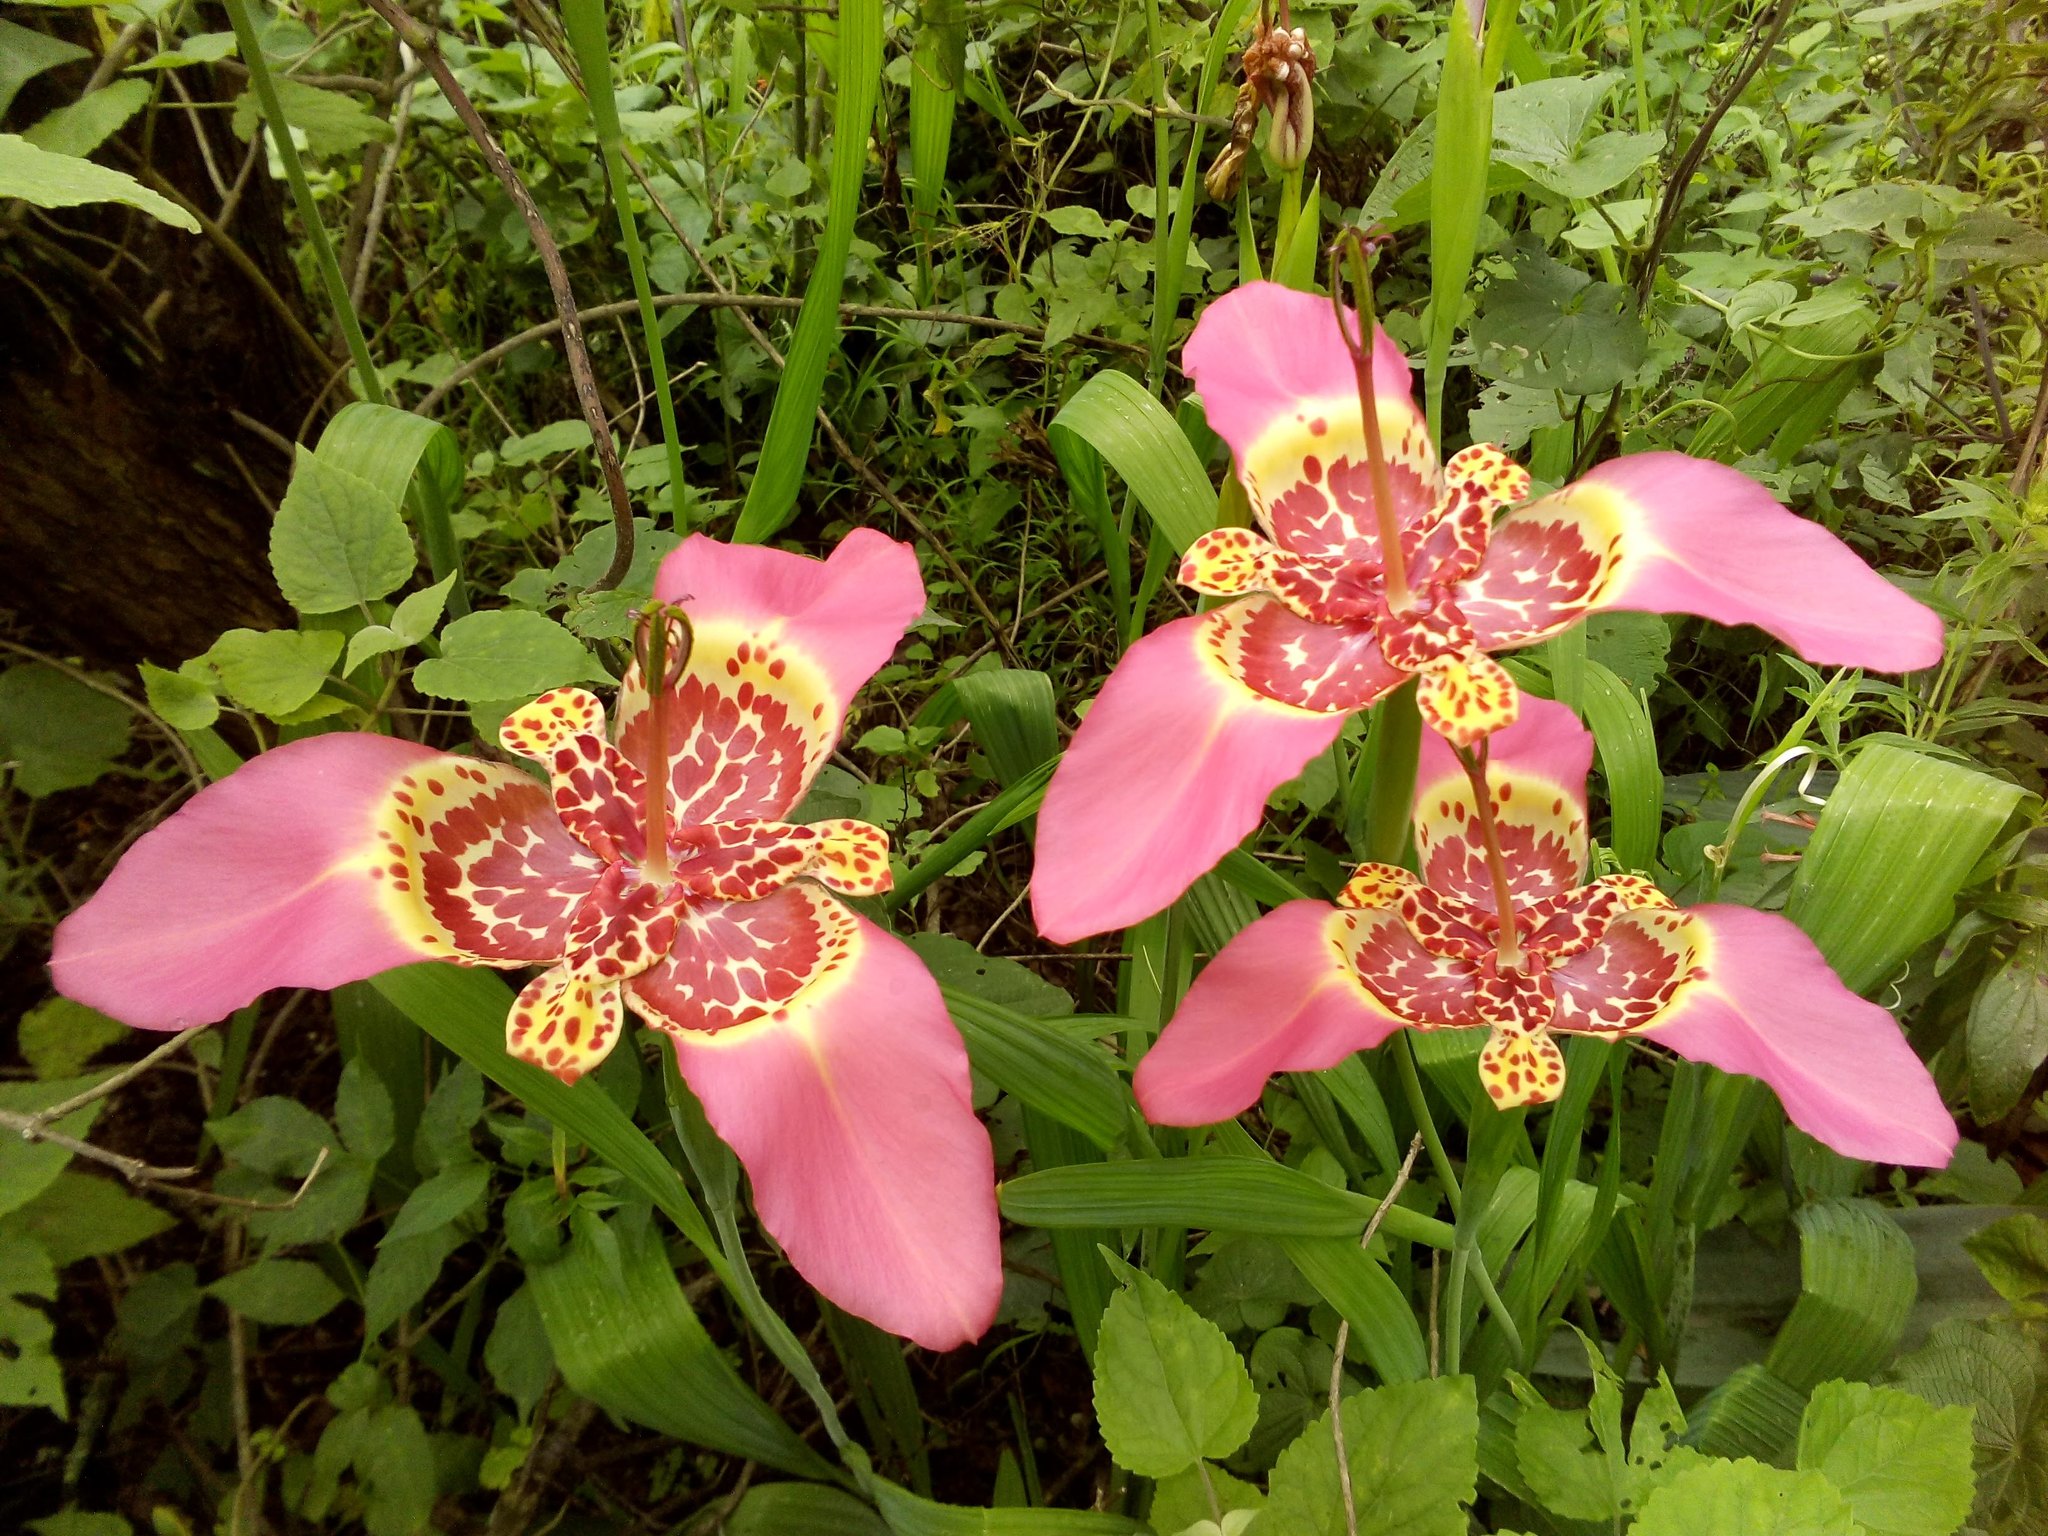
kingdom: Plantae
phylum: Tracheophyta
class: Liliopsida
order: Asparagales
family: Iridaceae
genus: Tigridia
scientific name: Tigridia pavonia
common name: Peacock-flower
